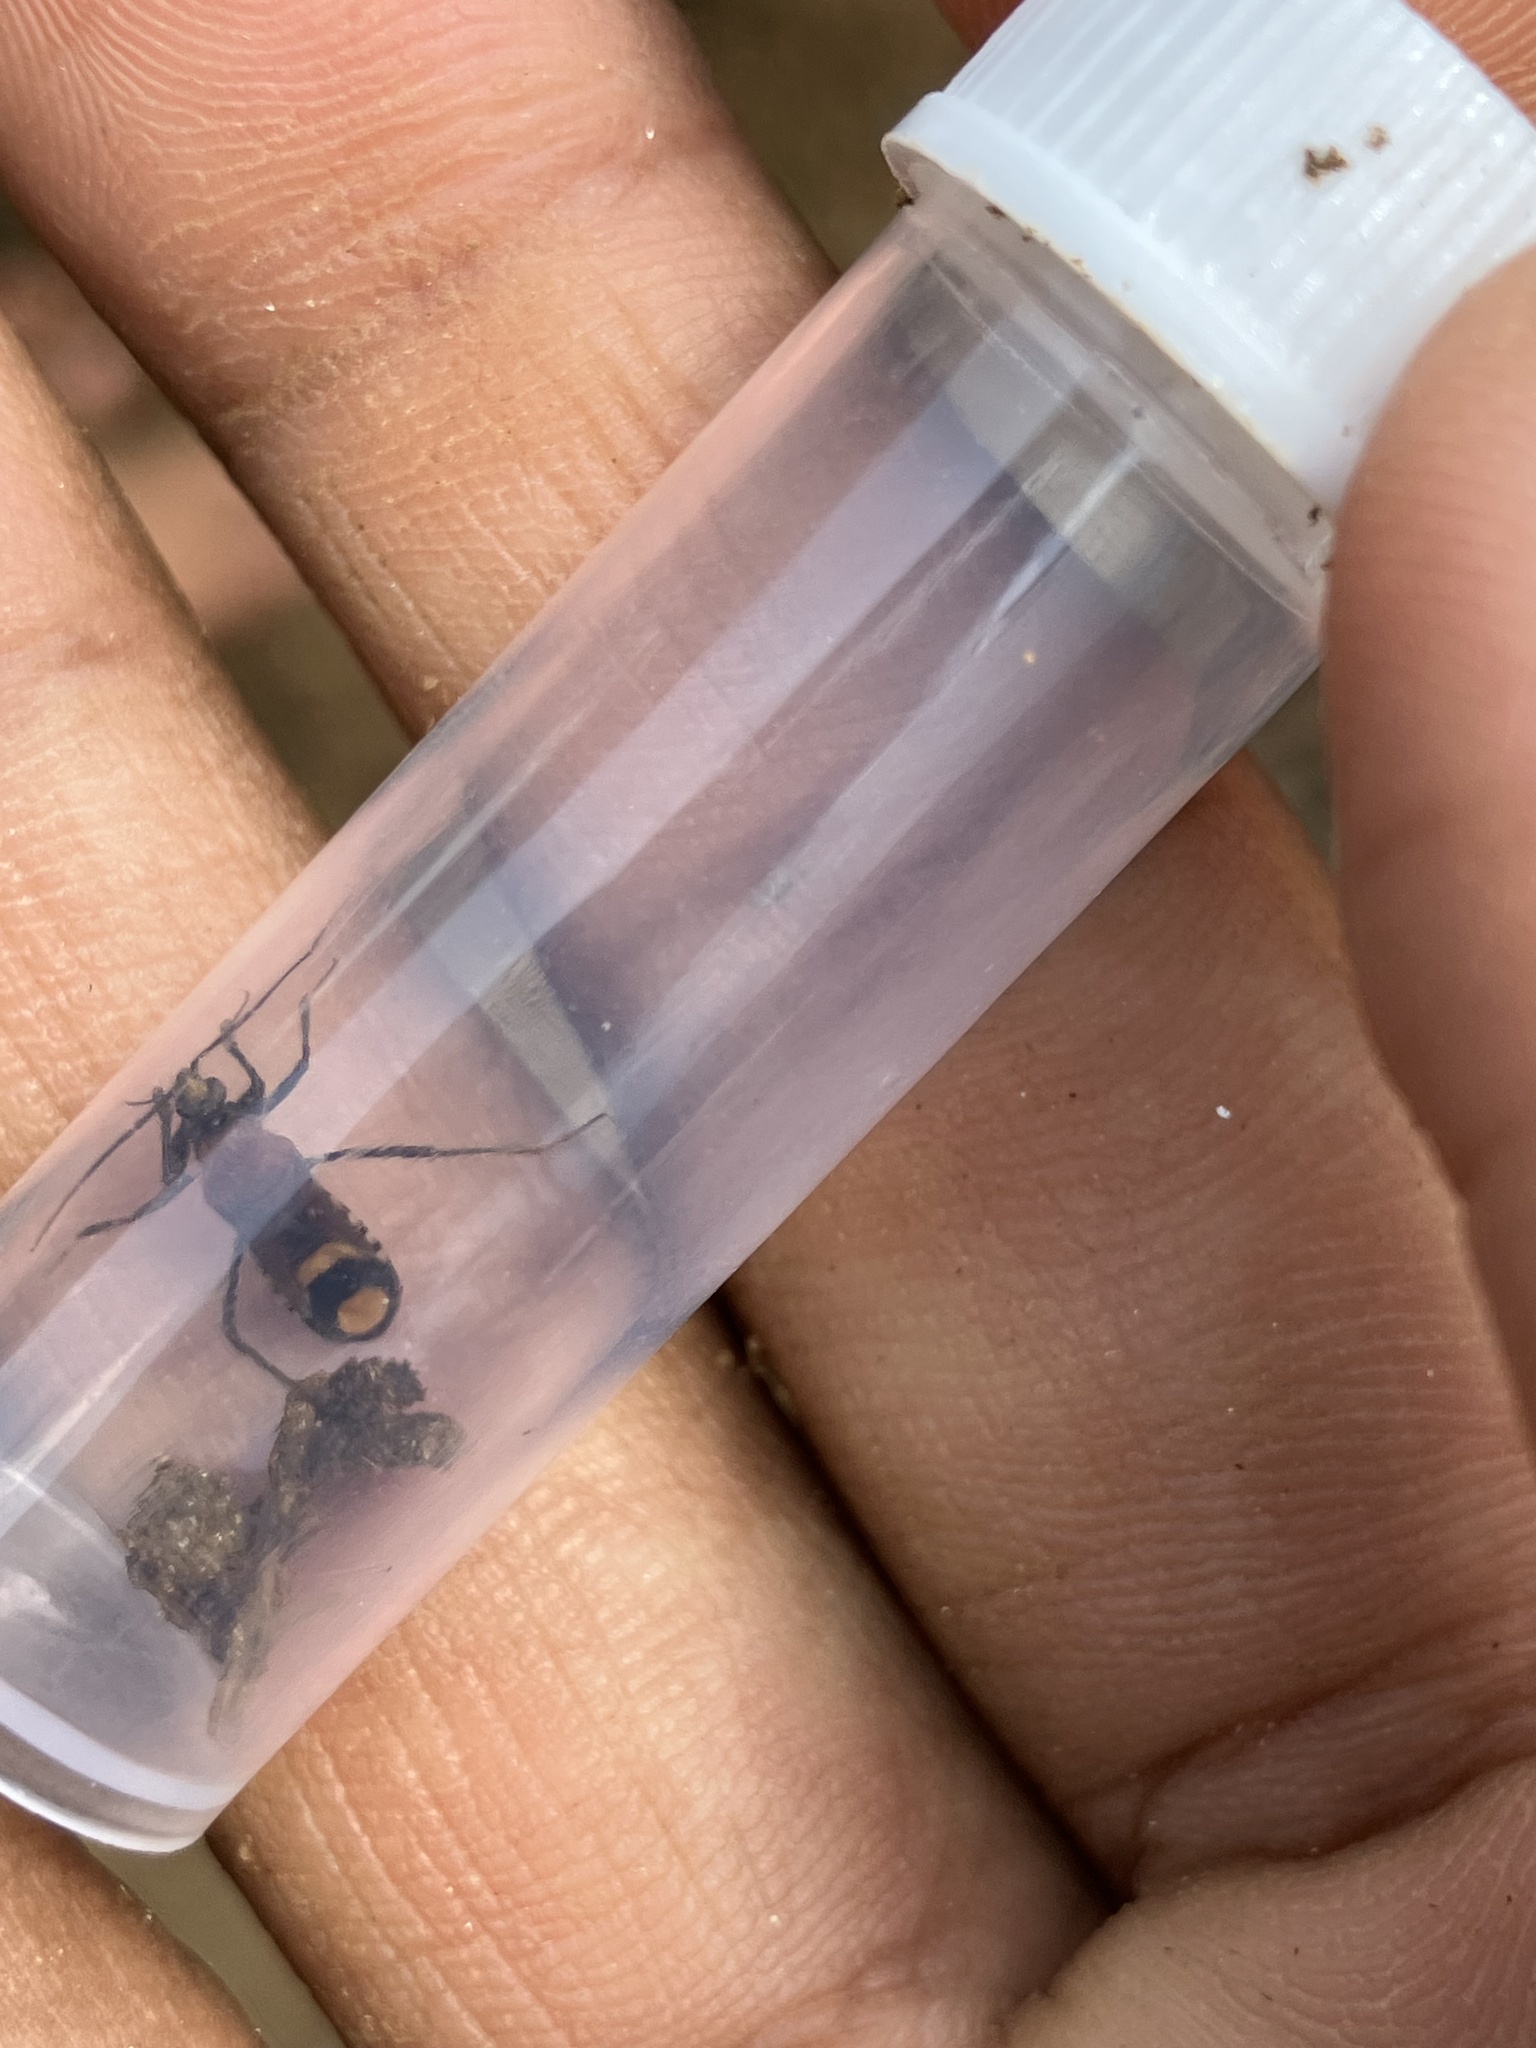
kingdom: Animalia
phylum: Arthropoda
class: Insecta
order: Hemiptera
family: Reduviidae
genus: Peirates
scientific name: Peirates arcuatus
